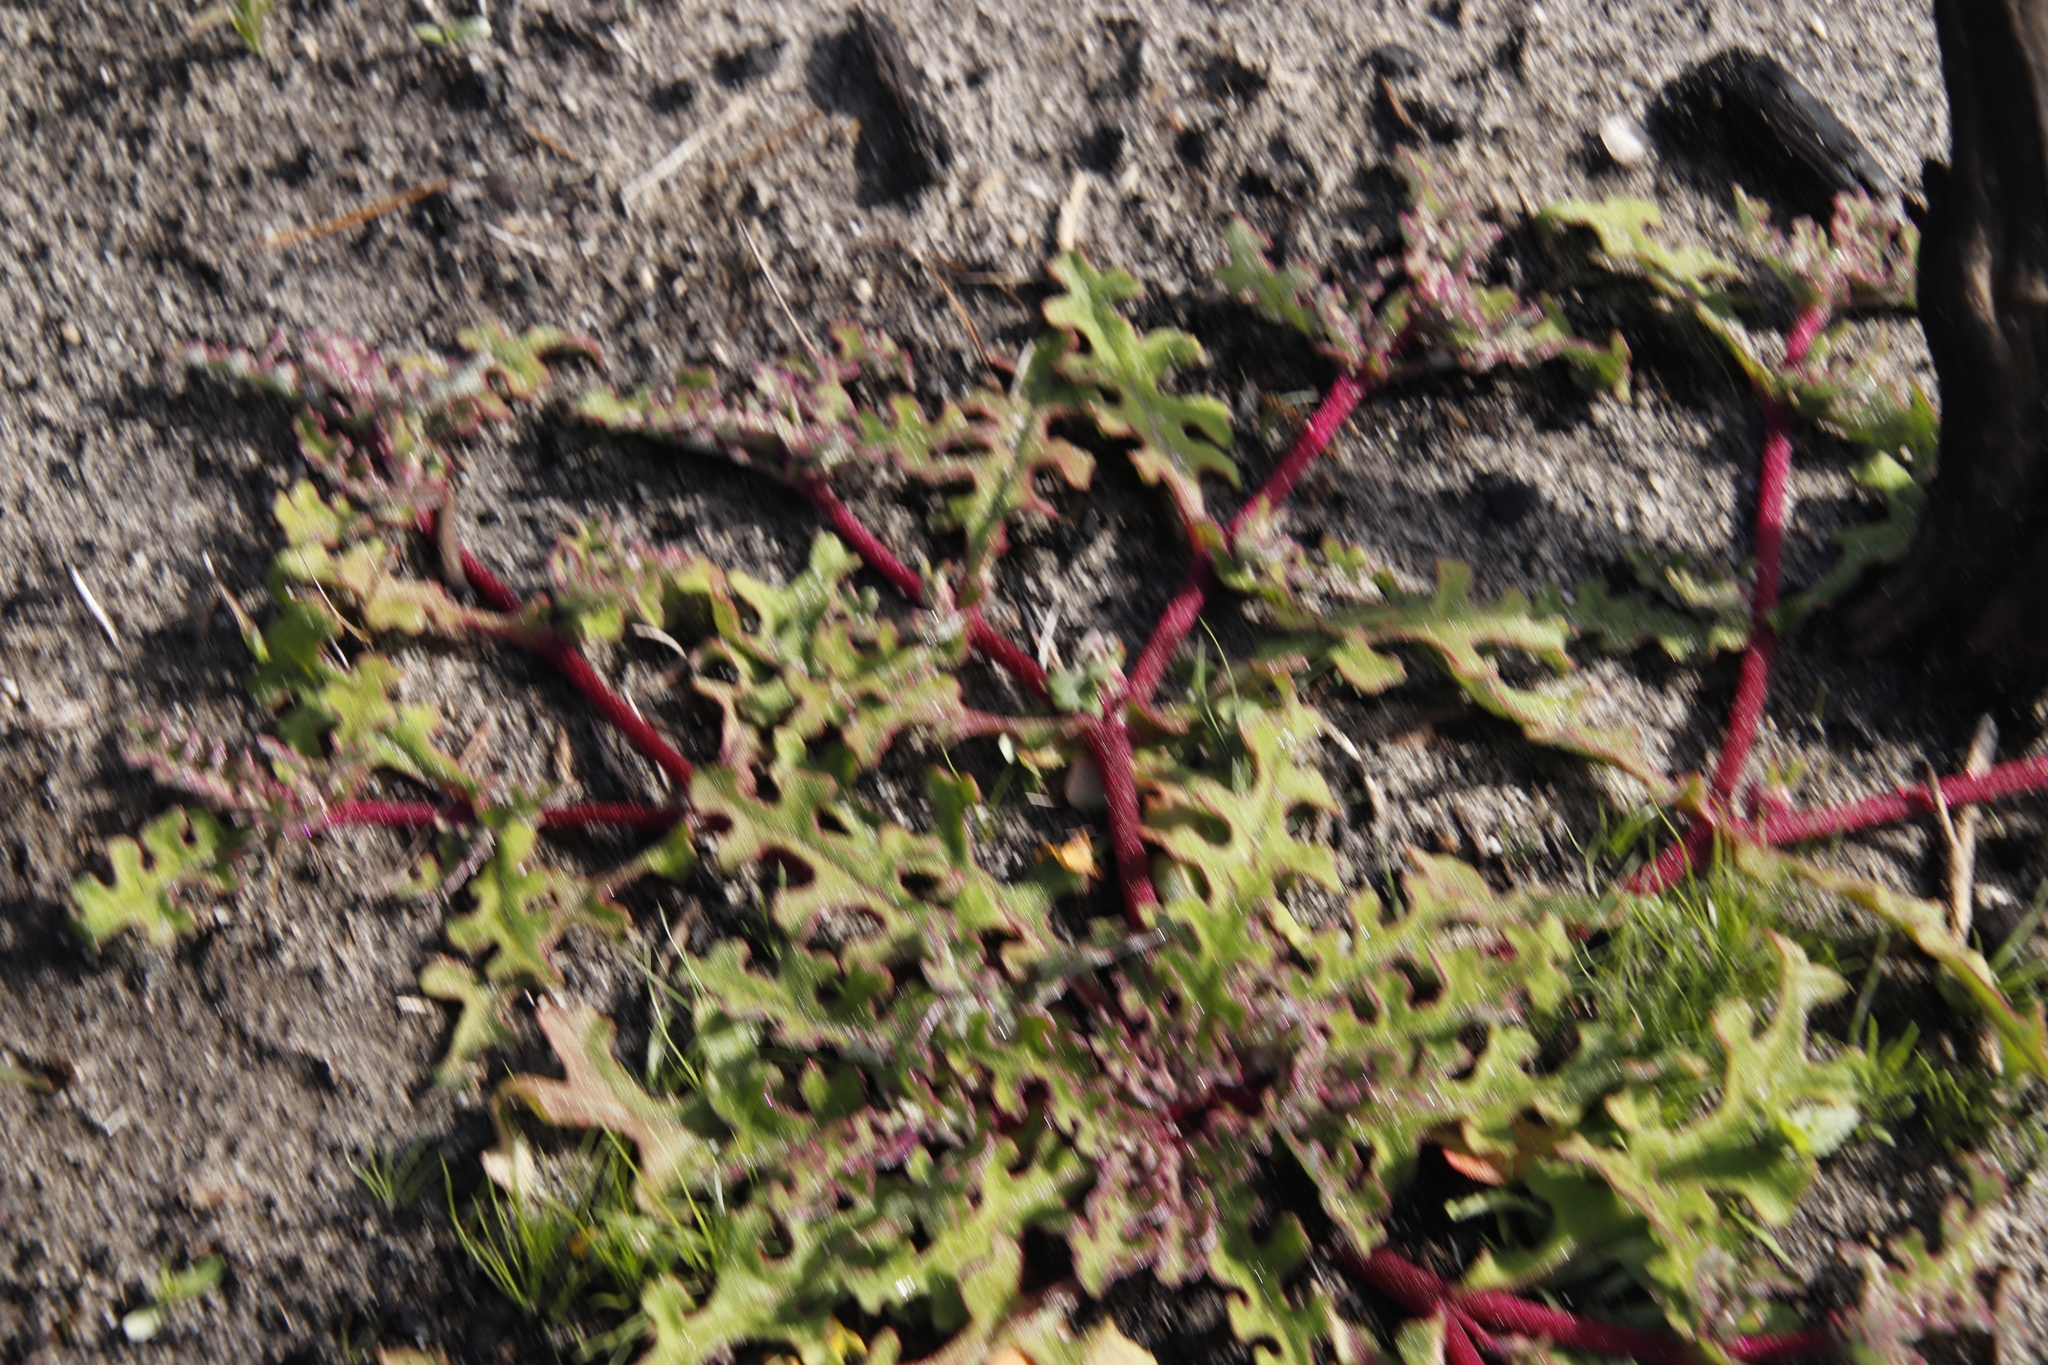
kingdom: Plantae
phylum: Tracheophyta
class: Magnoliopsida
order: Caryophyllales
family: Aizoaceae
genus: Cleretum
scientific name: Cleretum herrei
